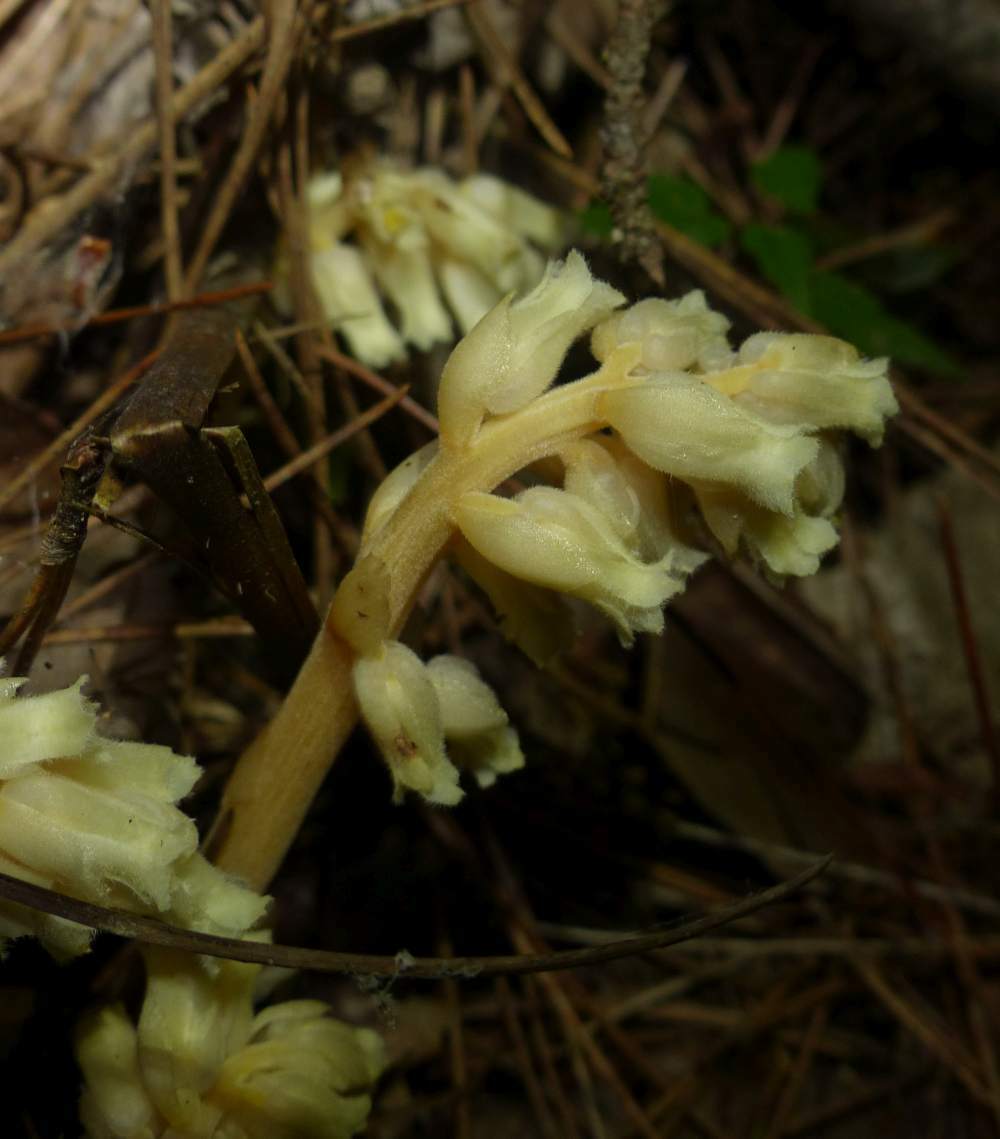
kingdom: Plantae
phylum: Tracheophyta
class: Magnoliopsida
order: Ericales
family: Ericaceae
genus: Hypopitys
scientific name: Hypopitys monotropa
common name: Yellow bird's-nest
